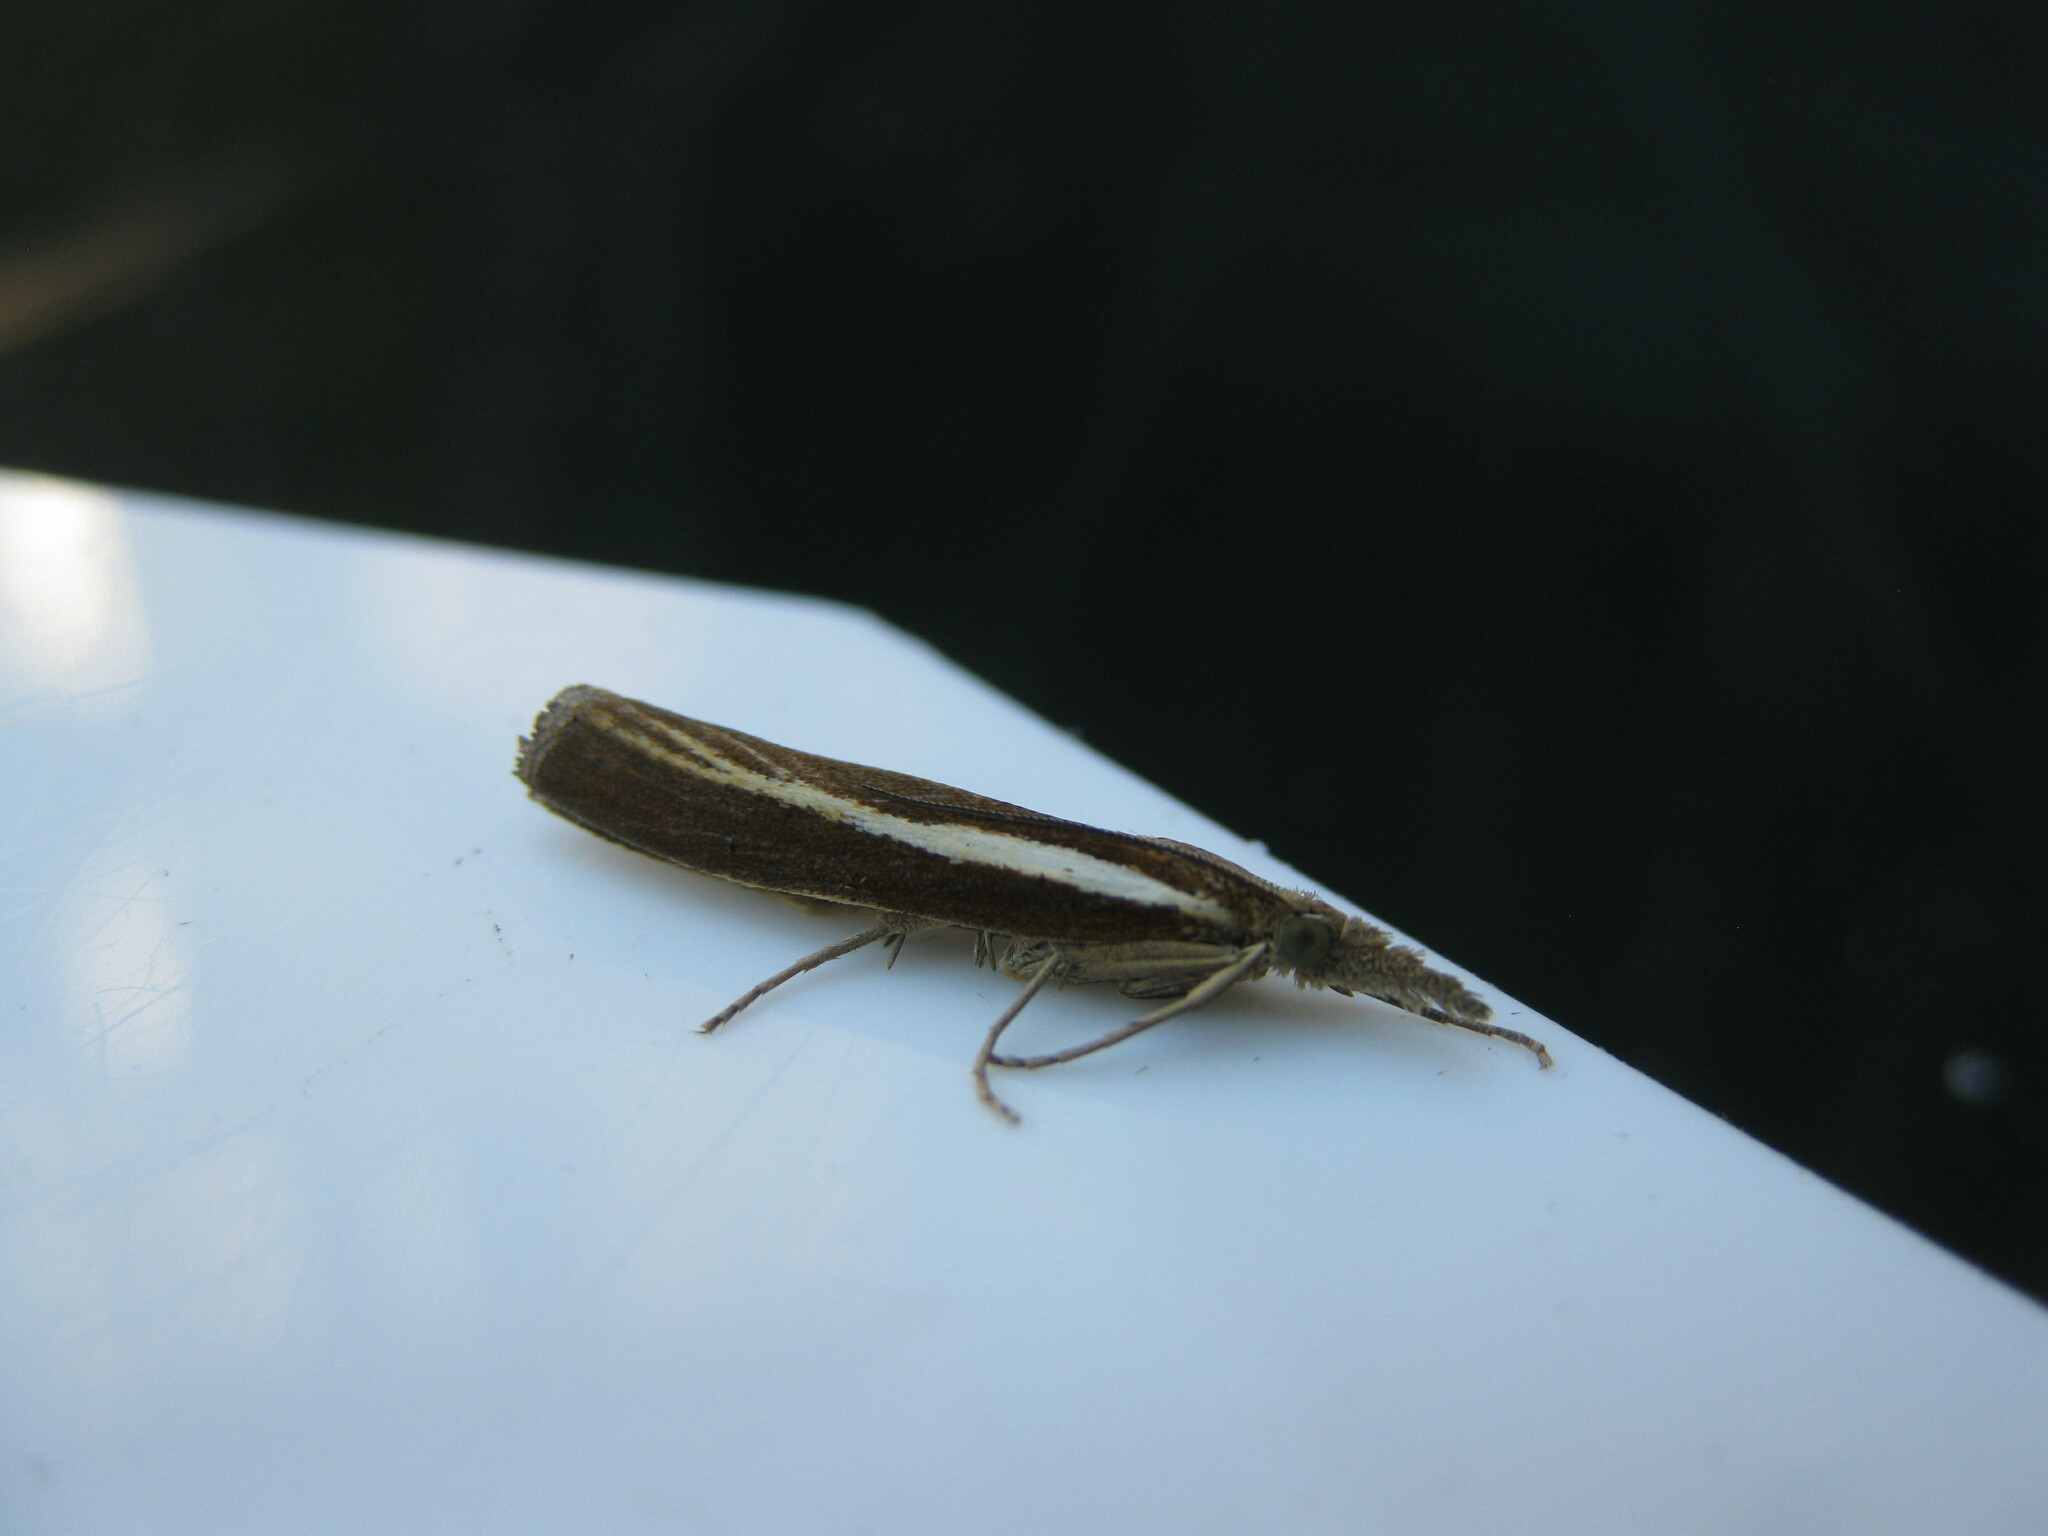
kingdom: Animalia
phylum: Arthropoda
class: Insecta
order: Lepidoptera
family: Crambidae
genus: Agriphila
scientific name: Agriphila tristellus
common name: Common grass-veneer
